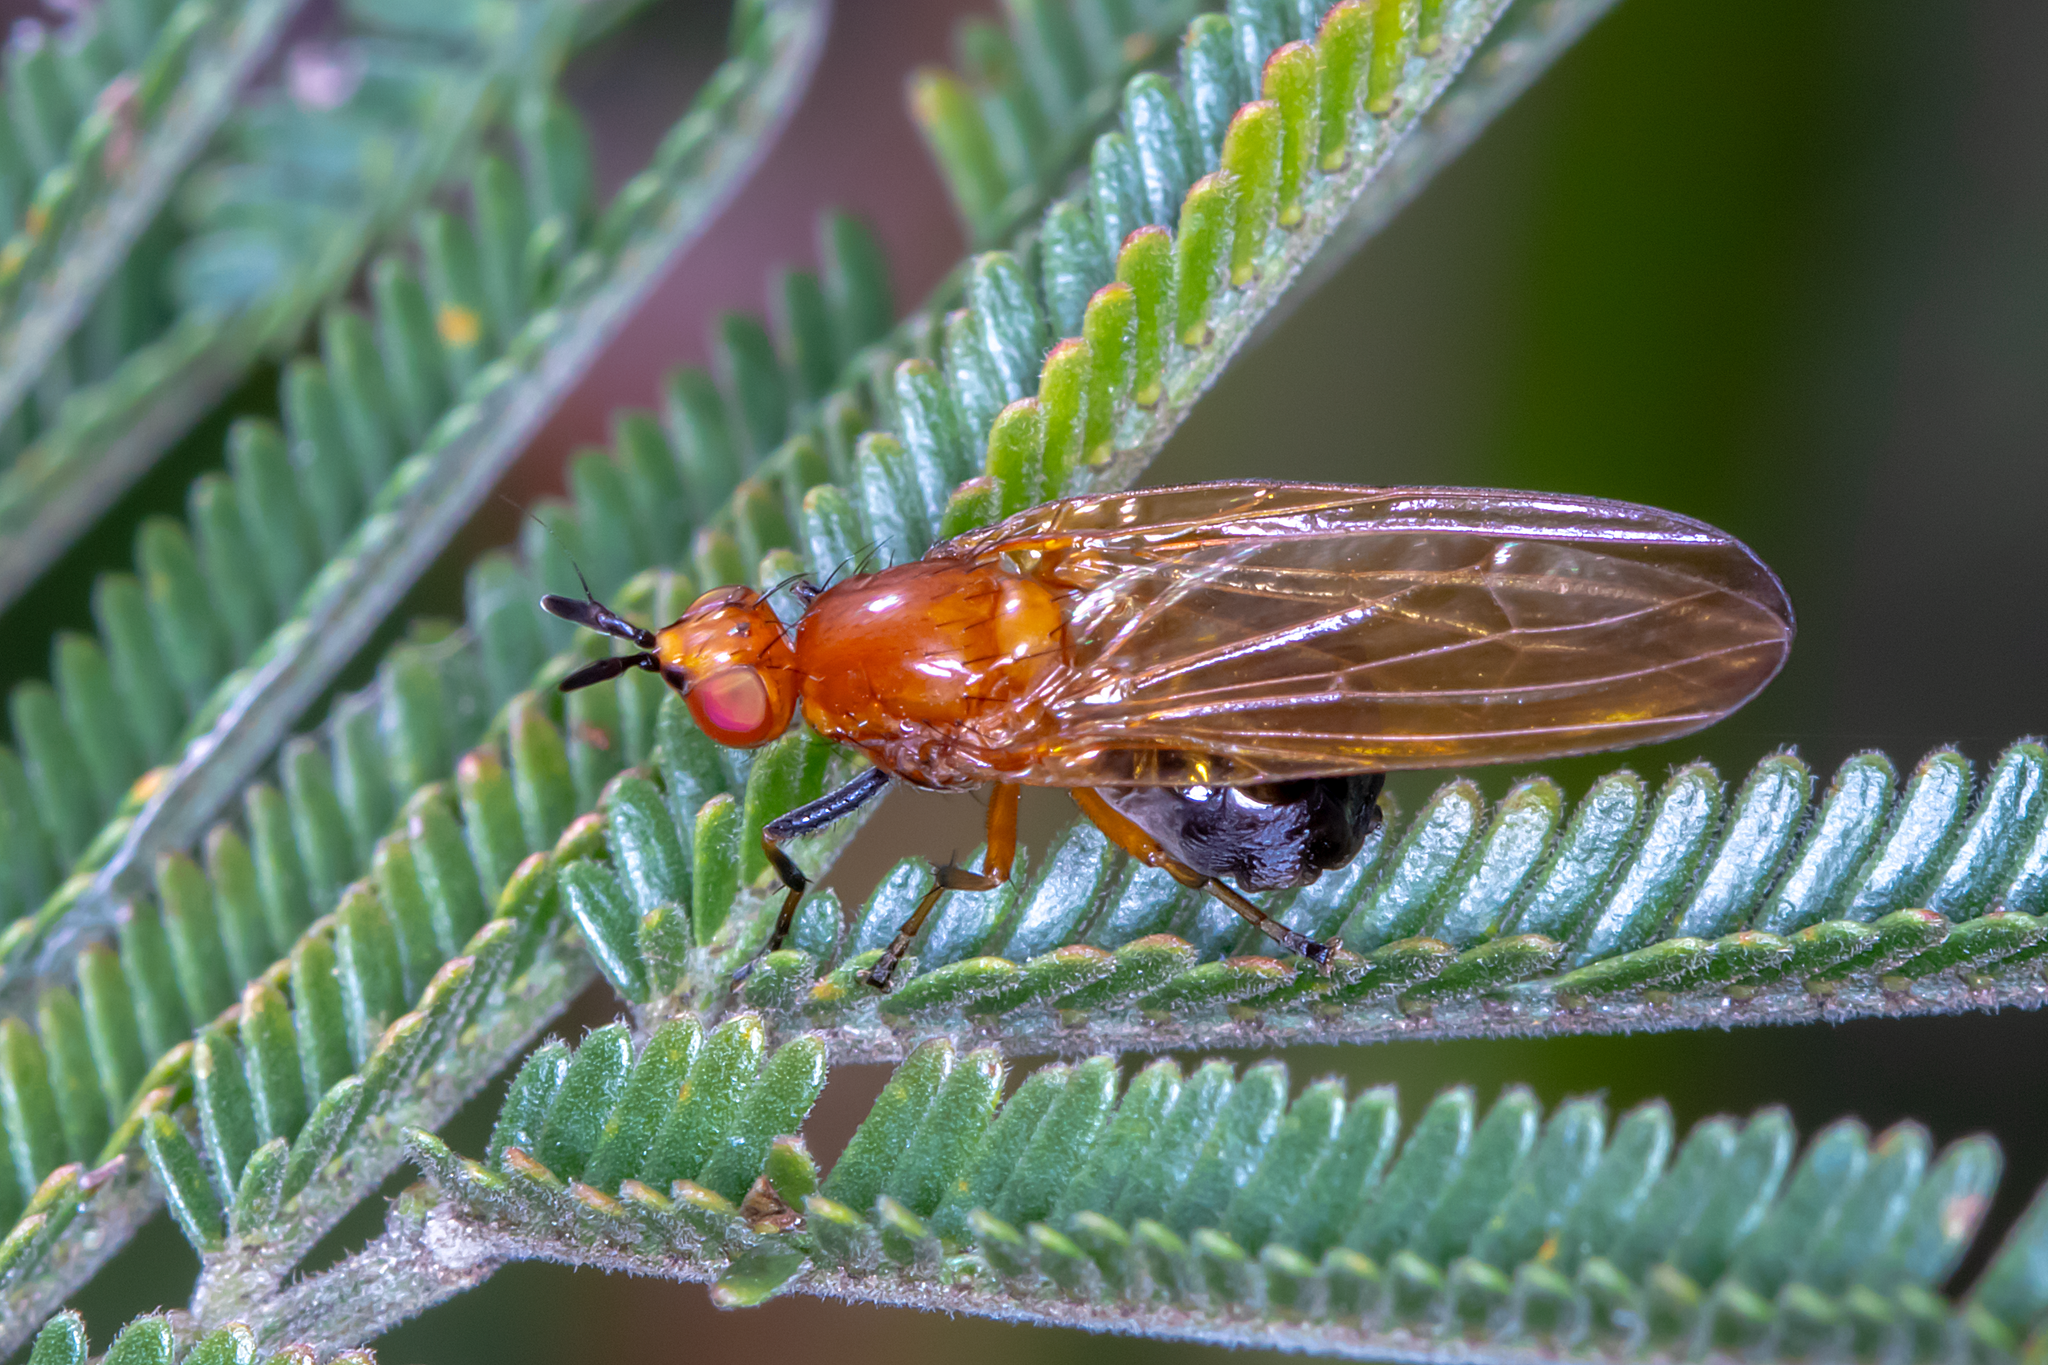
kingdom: Animalia
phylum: Arthropoda
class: Insecta
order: Diptera
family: Lauxaniidae
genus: Rhagadolyra
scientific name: Rhagadolyra magnicornis
